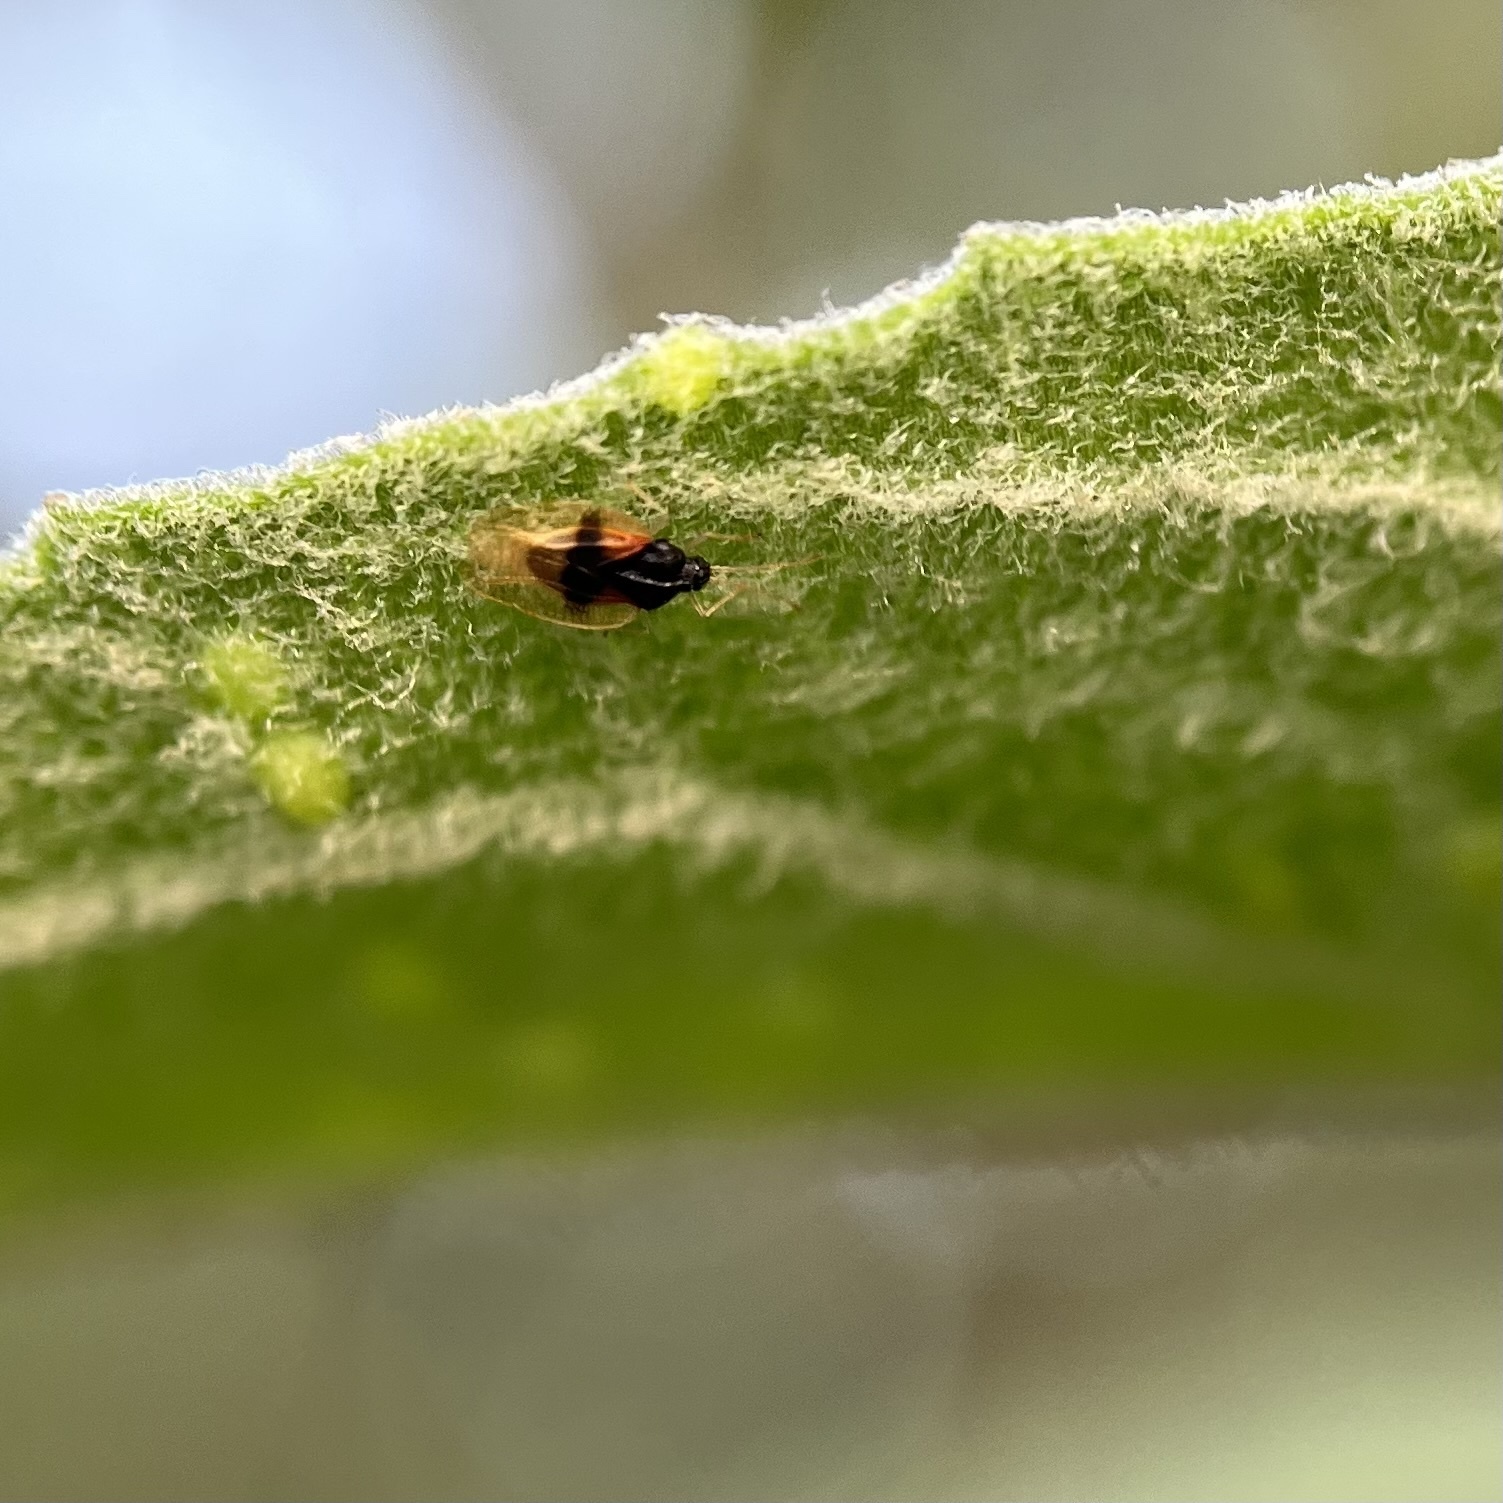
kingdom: Animalia
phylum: Arthropoda
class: Insecta
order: Hemiptera
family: Tingidae
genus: Pseudacysta
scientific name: Pseudacysta perseae
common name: Avocado lace bug
